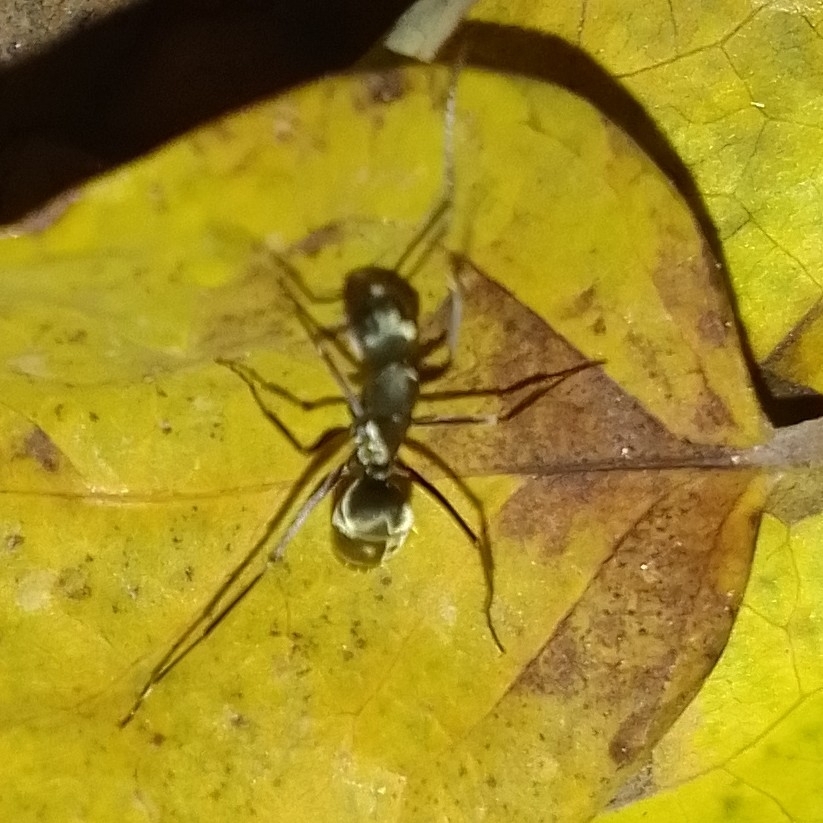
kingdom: Animalia
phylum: Arthropoda
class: Insecta
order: Hymenoptera
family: Formicidae
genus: Camponotus
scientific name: Camponotus parius
